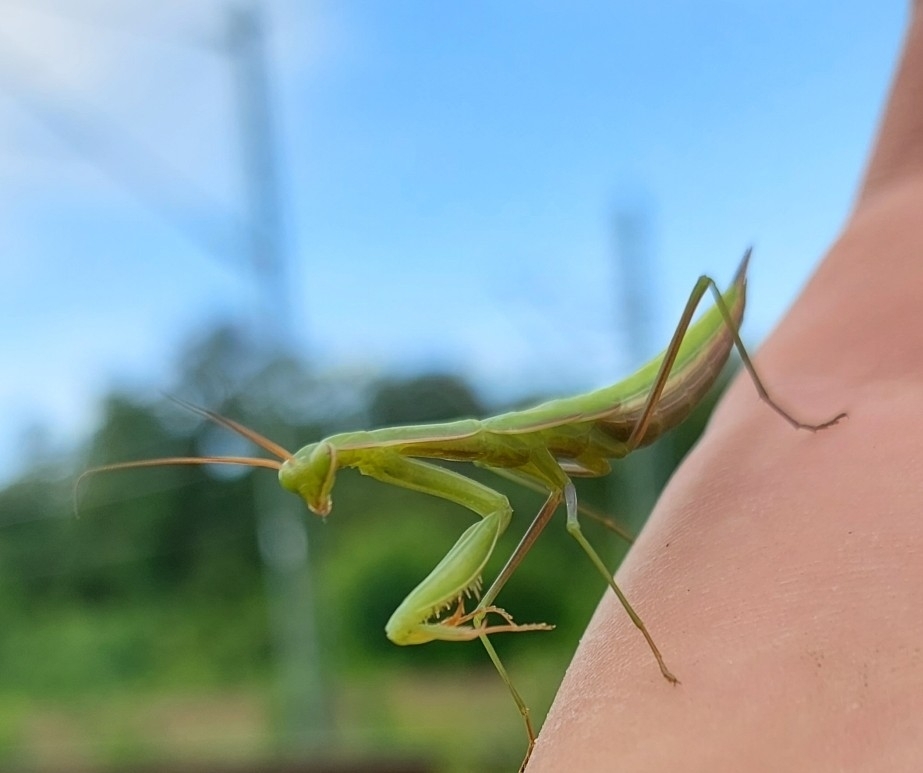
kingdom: Animalia
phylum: Arthropoda
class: Insecta
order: Mantodea
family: Mantidae
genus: Mantis
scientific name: Mantis religiosa
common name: Praying mantis
